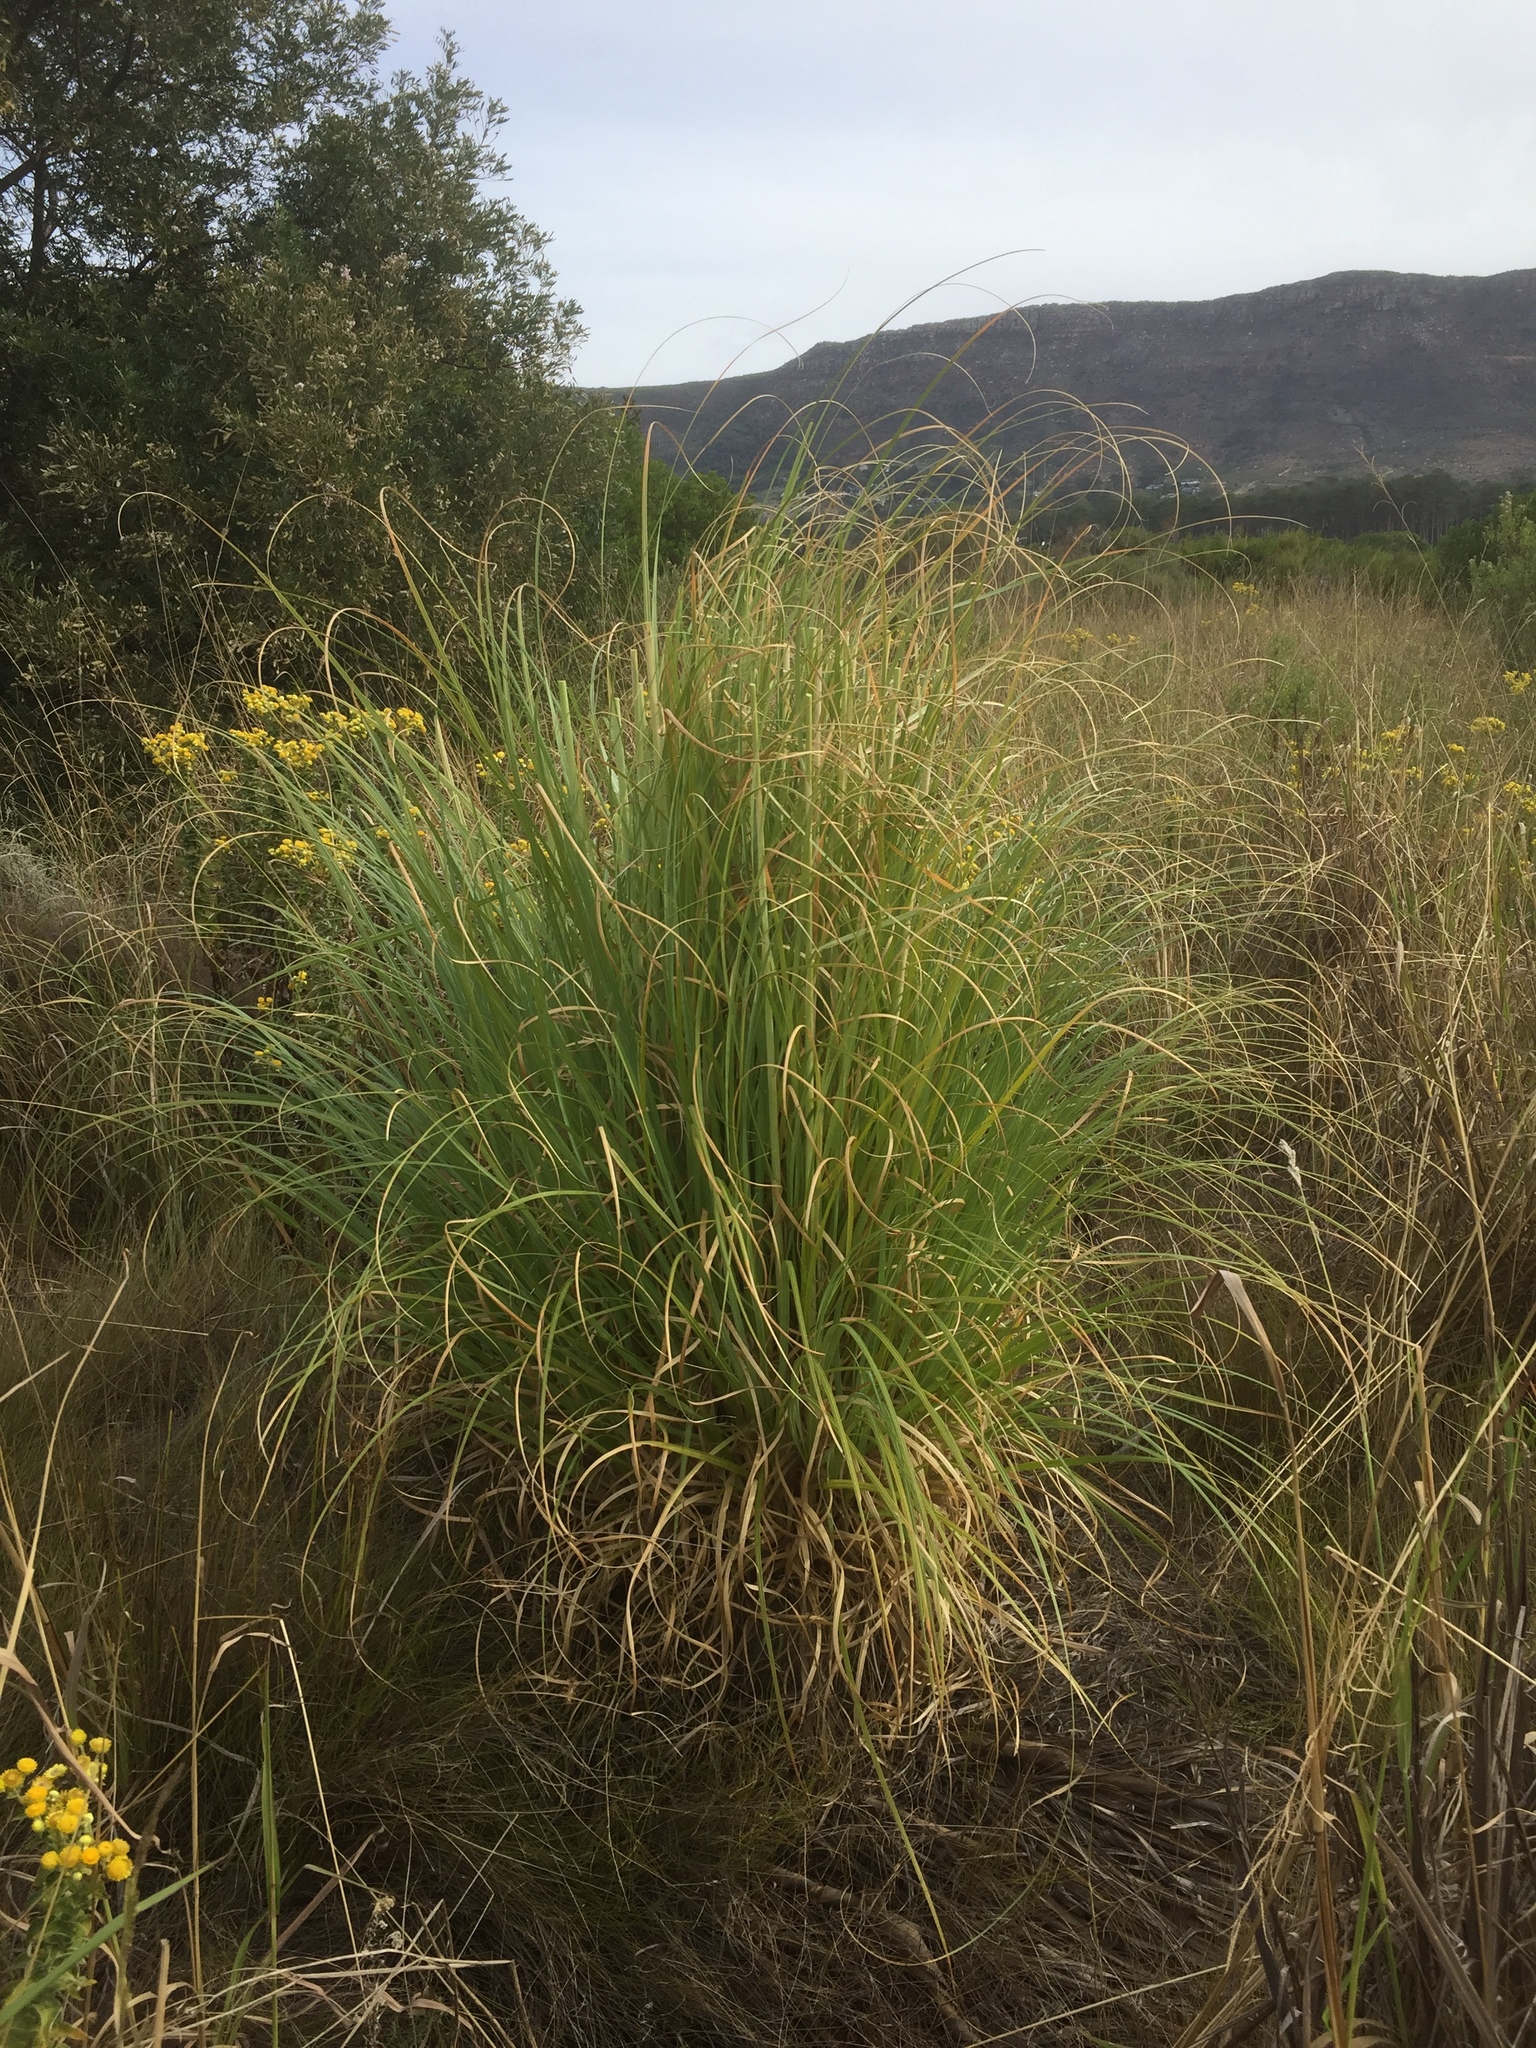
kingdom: Plantae
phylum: Tracheophyta
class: Liliopsida
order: Poales
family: Poaceae
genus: Cortaderia
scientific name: Cortaderia selloana
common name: Uruguayan pampas grass
